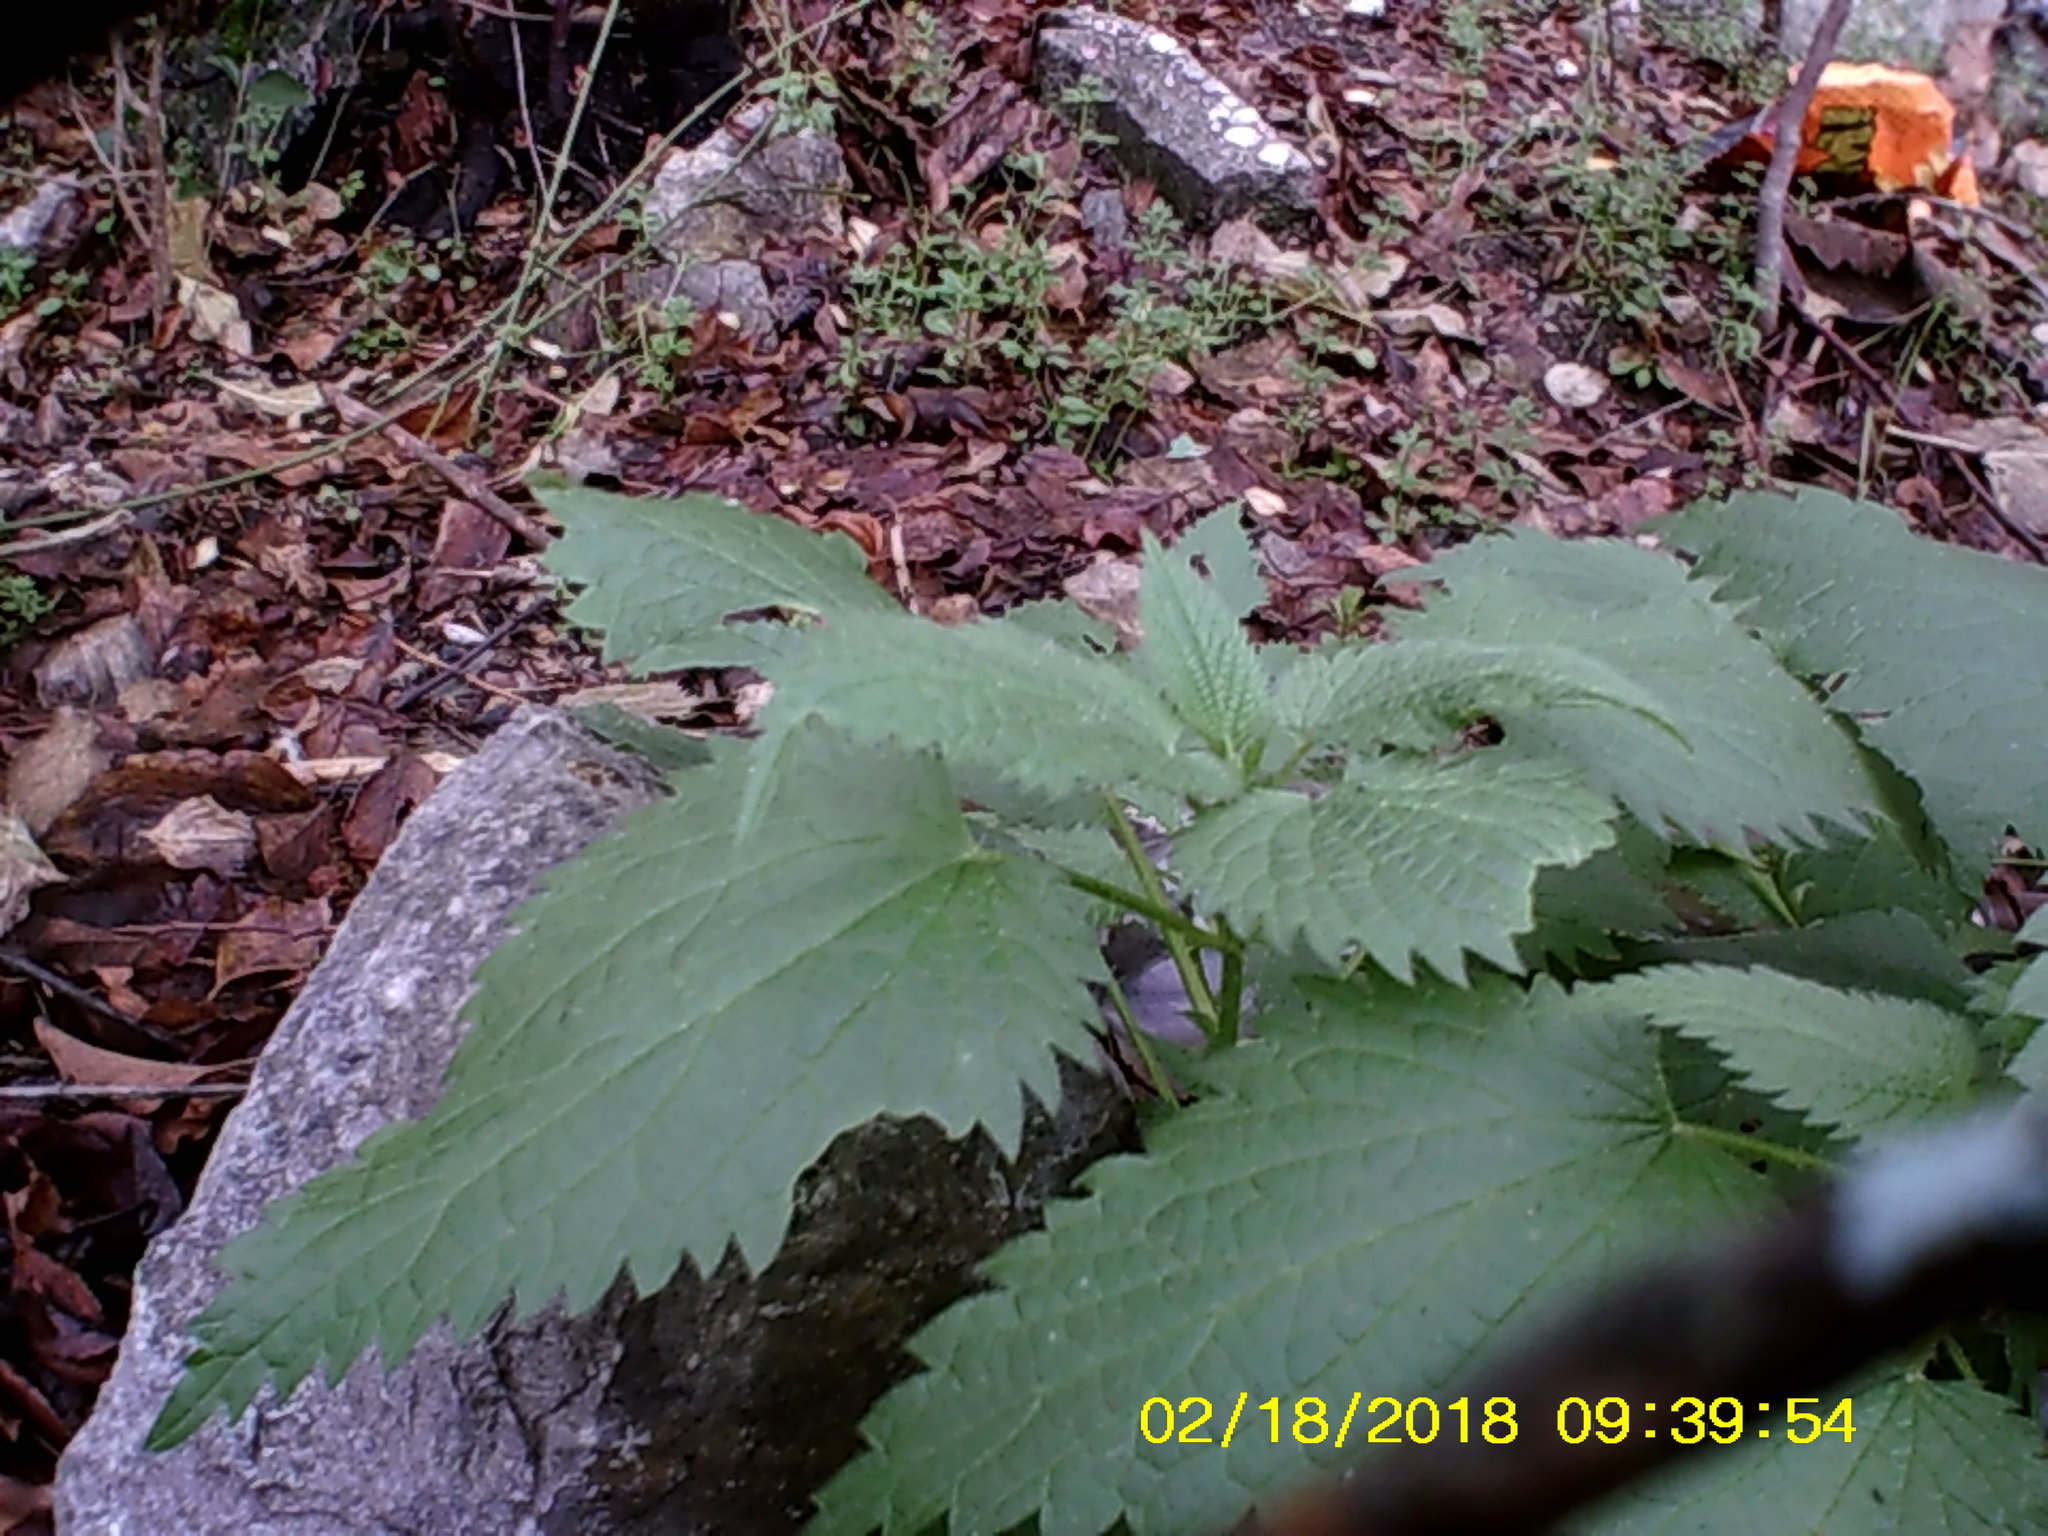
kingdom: Plantae
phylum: Tracheophyta
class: Magnoliopsida
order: Rosales
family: Urticaceae
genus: Urtica
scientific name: Urtica dioica
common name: Common nettle
